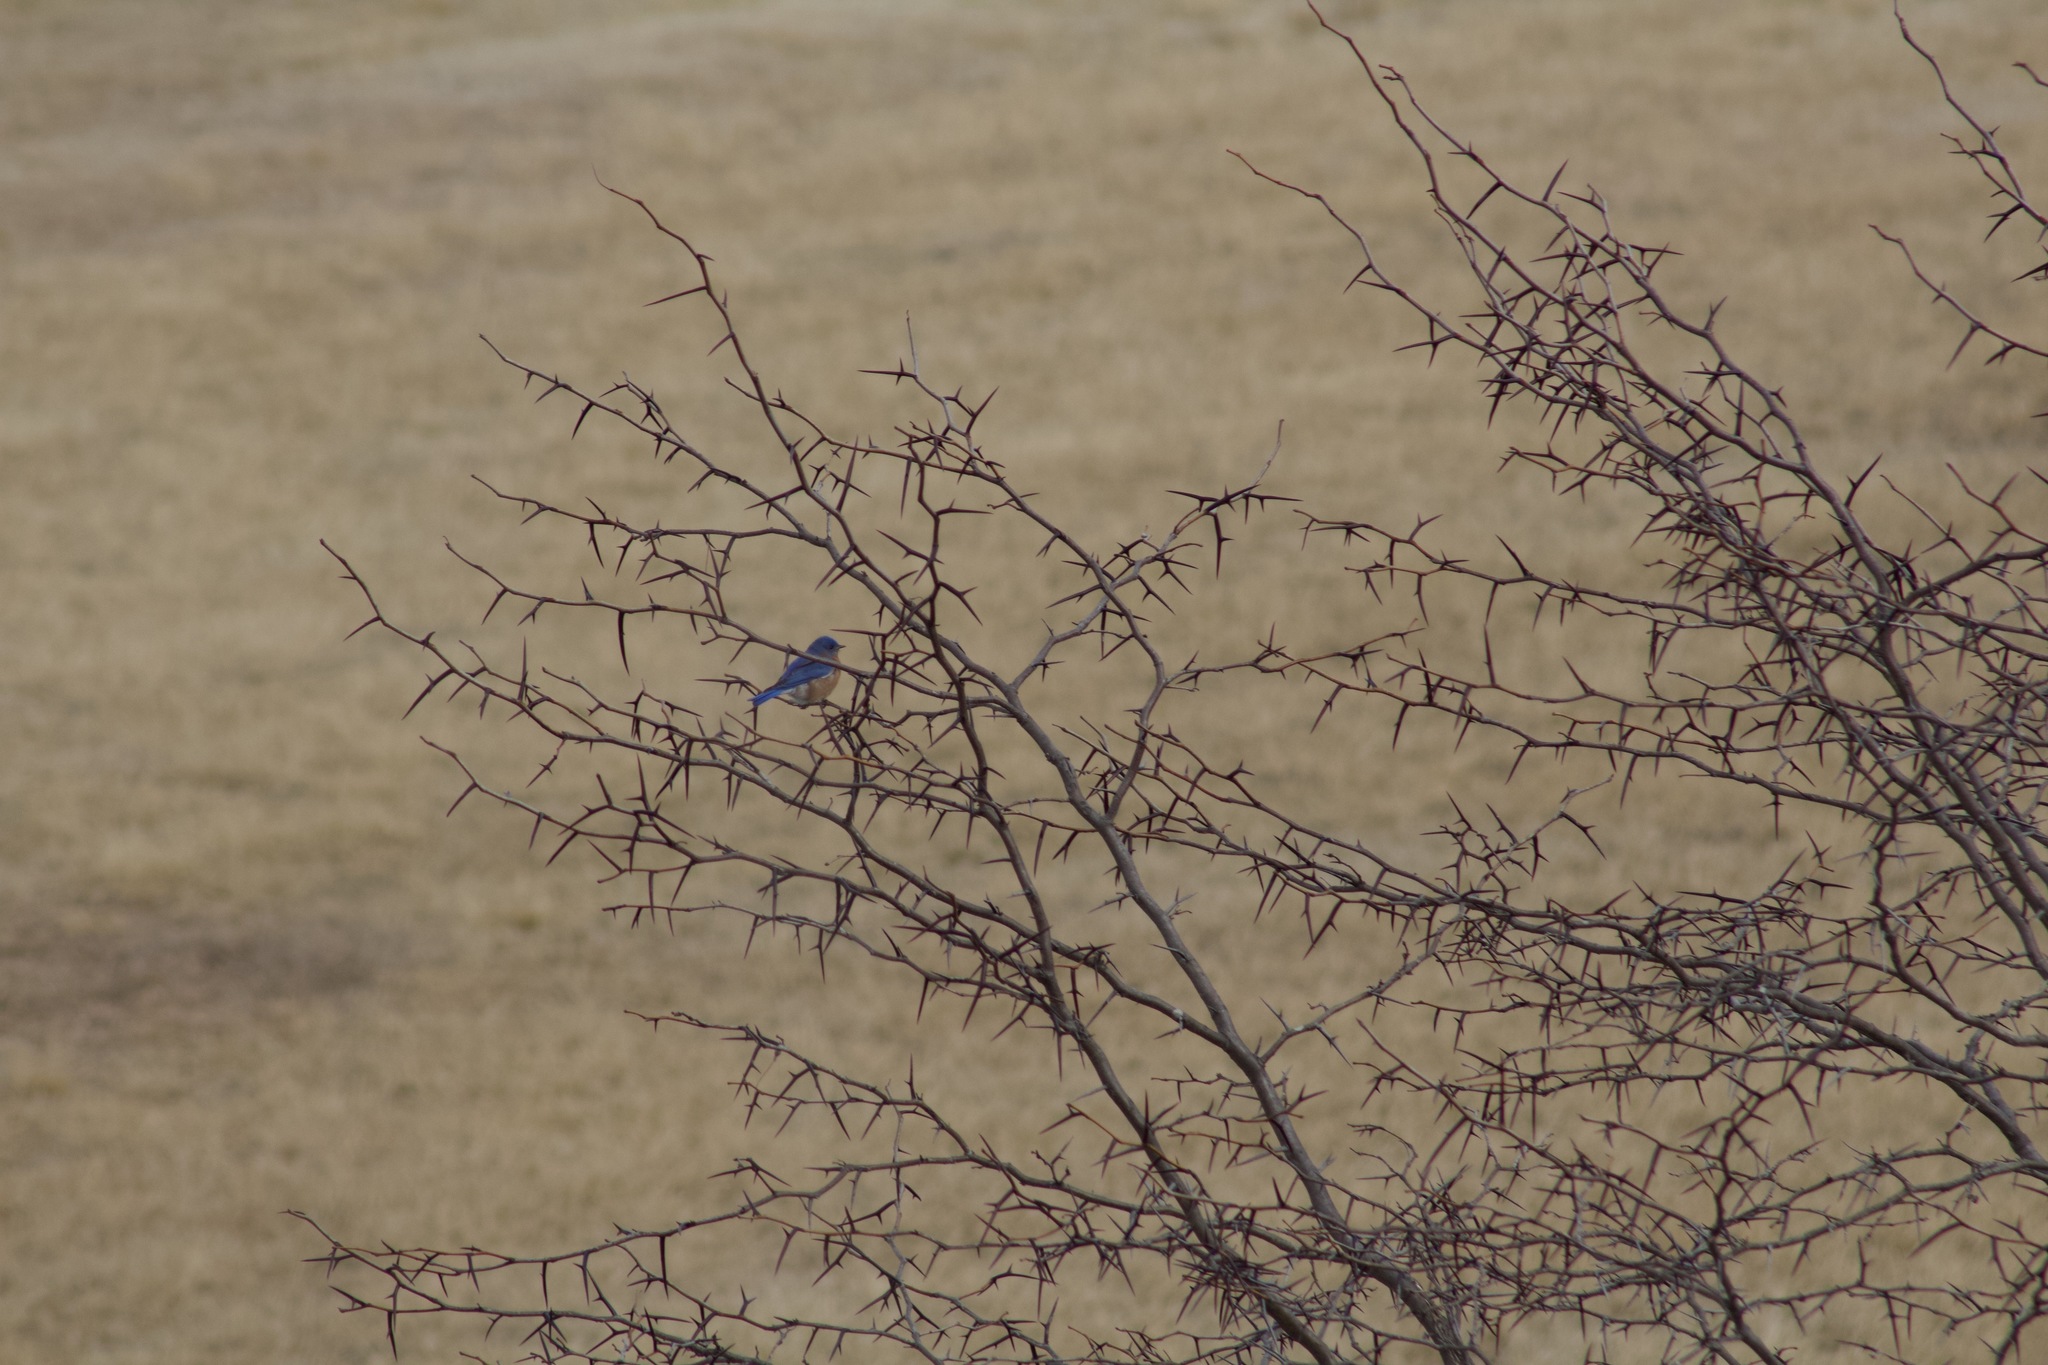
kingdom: Animalia
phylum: Chordata
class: Aves
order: Passeriformes
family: Turdidae
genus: Sialia
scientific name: Sialia sialis
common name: Eastern bluebird
